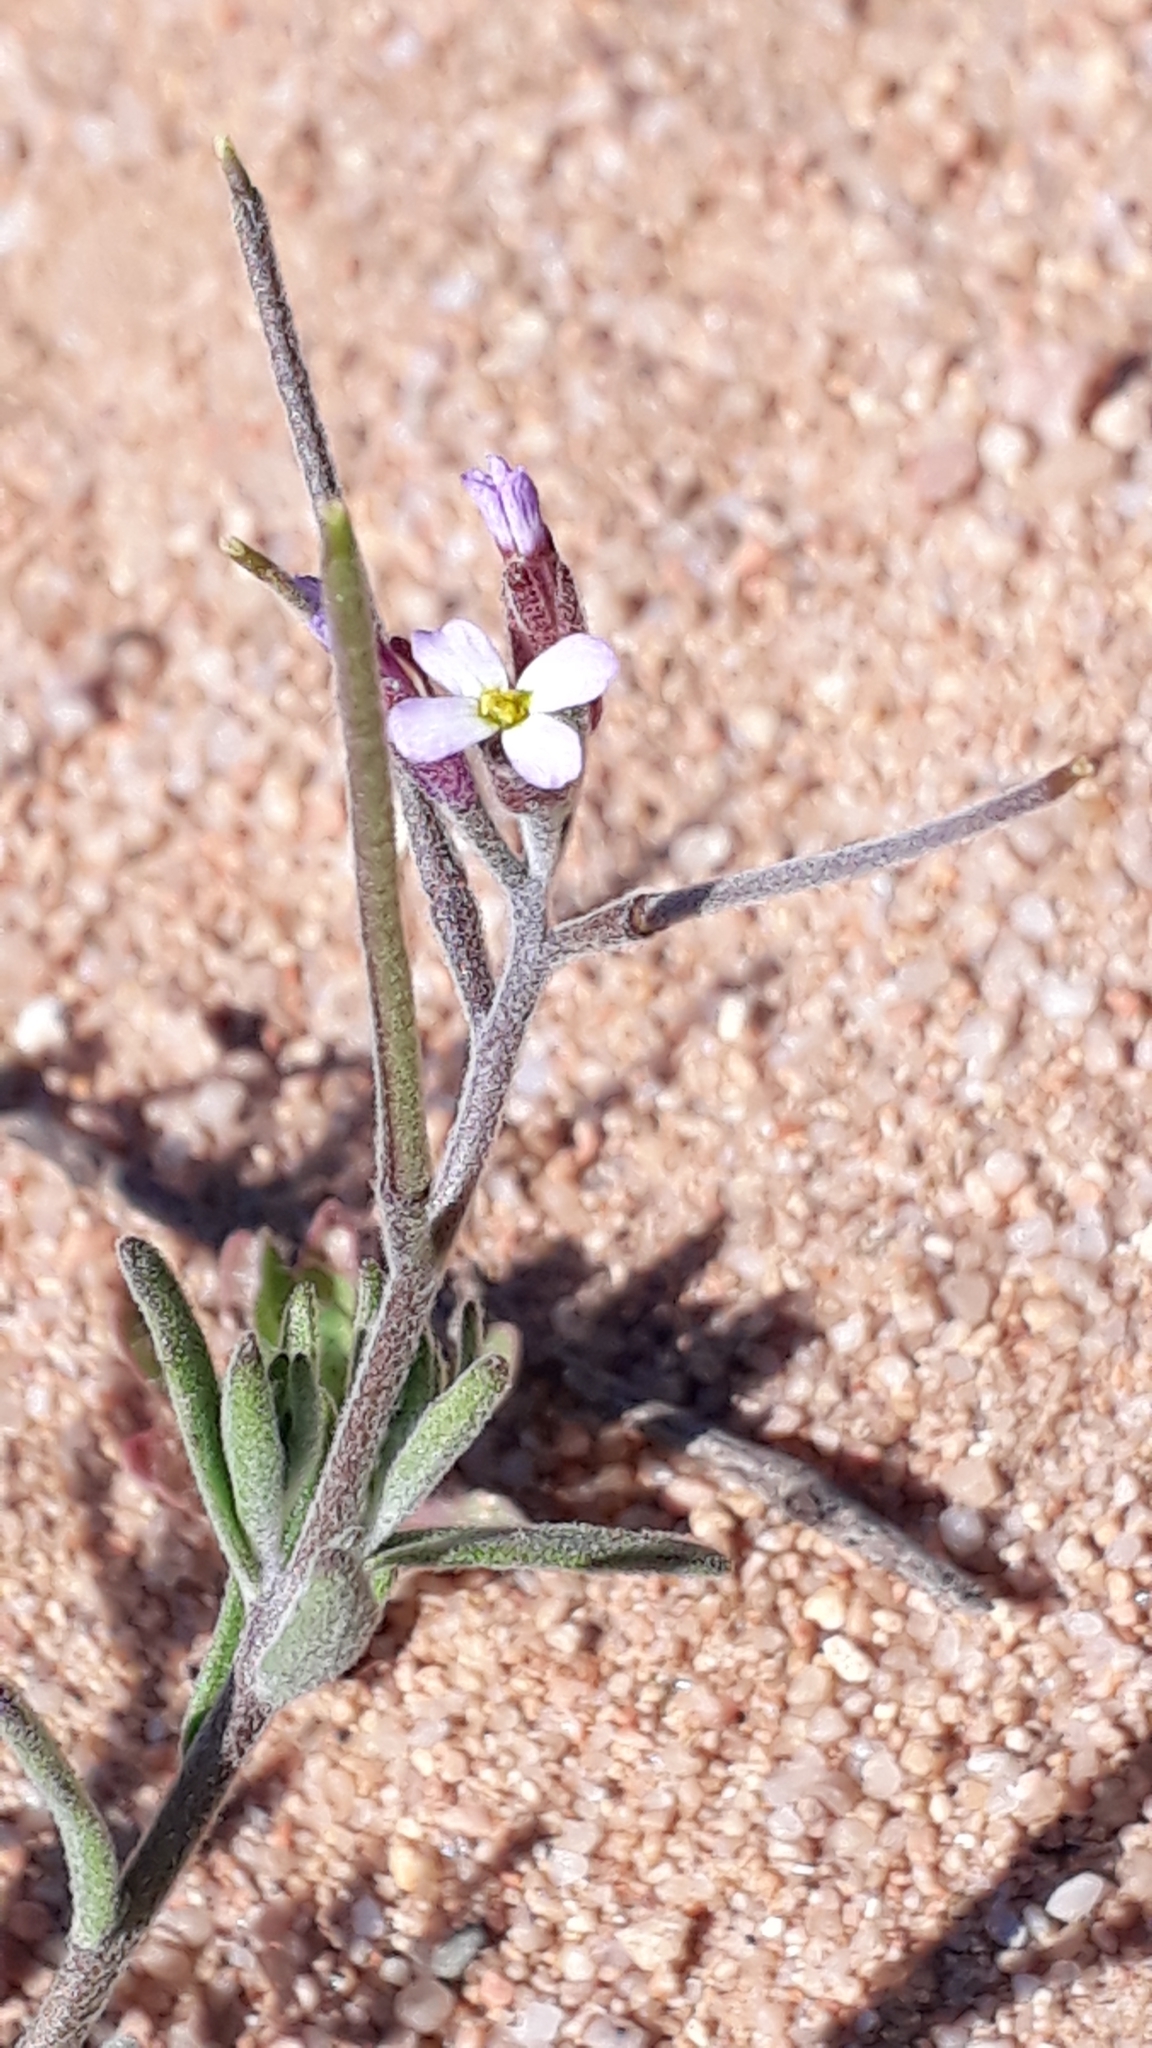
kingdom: Plantae
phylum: Tracheophyta
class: Magnoliopsida
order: Brassicales
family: Brassicaceae
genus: Marcuskochia
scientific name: Marcuskochia ramosissima
